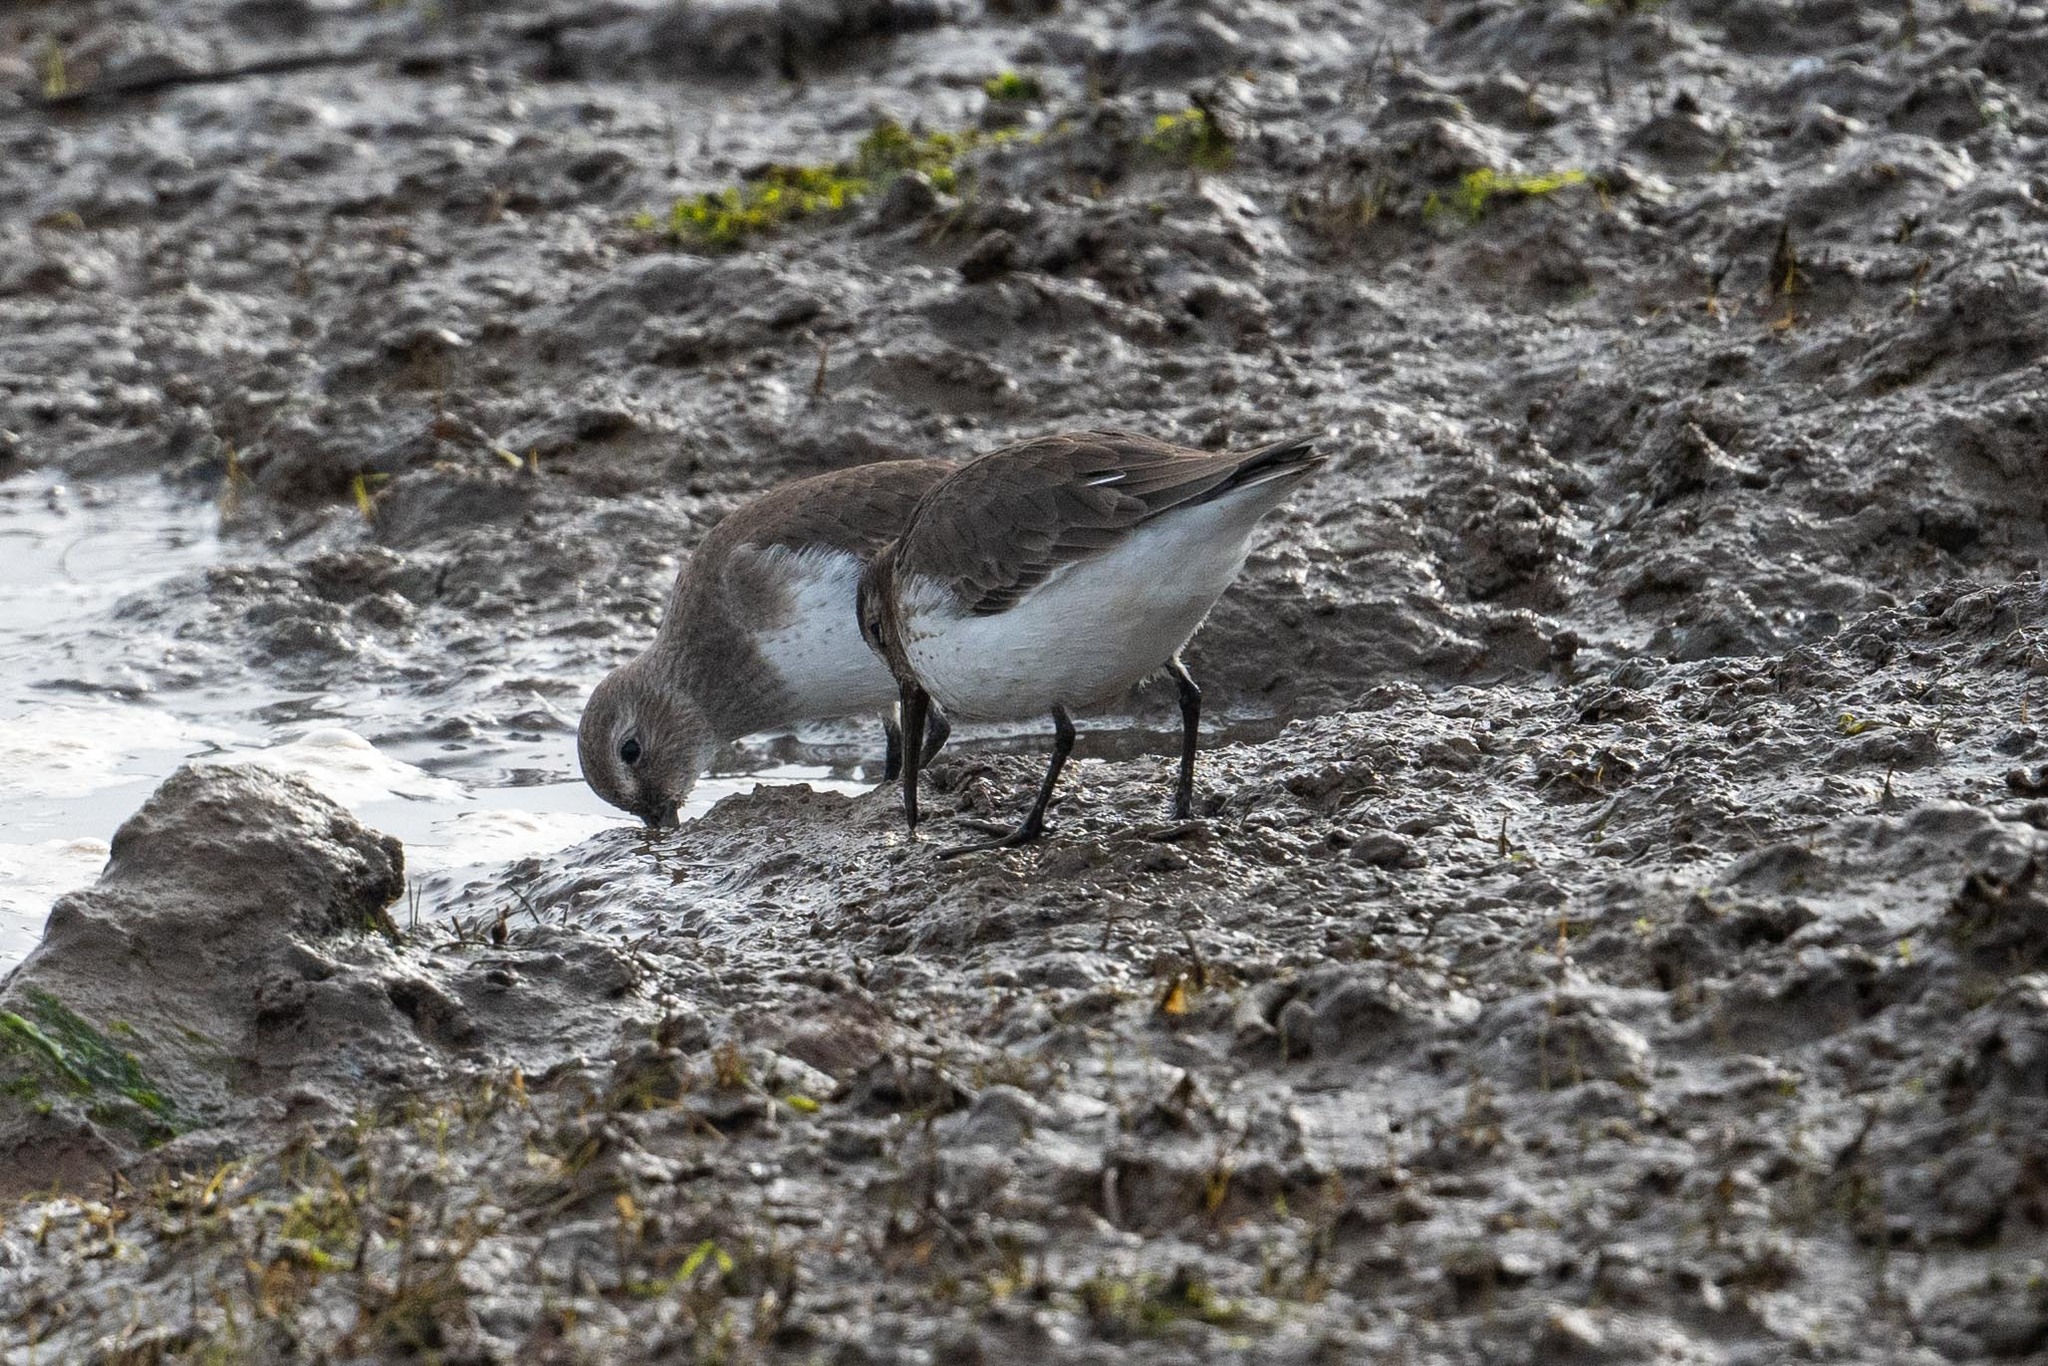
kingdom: Animalia
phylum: Chordata
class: Aves
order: Charadriiformes
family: Scolopacidae
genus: Calidris
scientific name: Calidris alpina
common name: Dunlin
